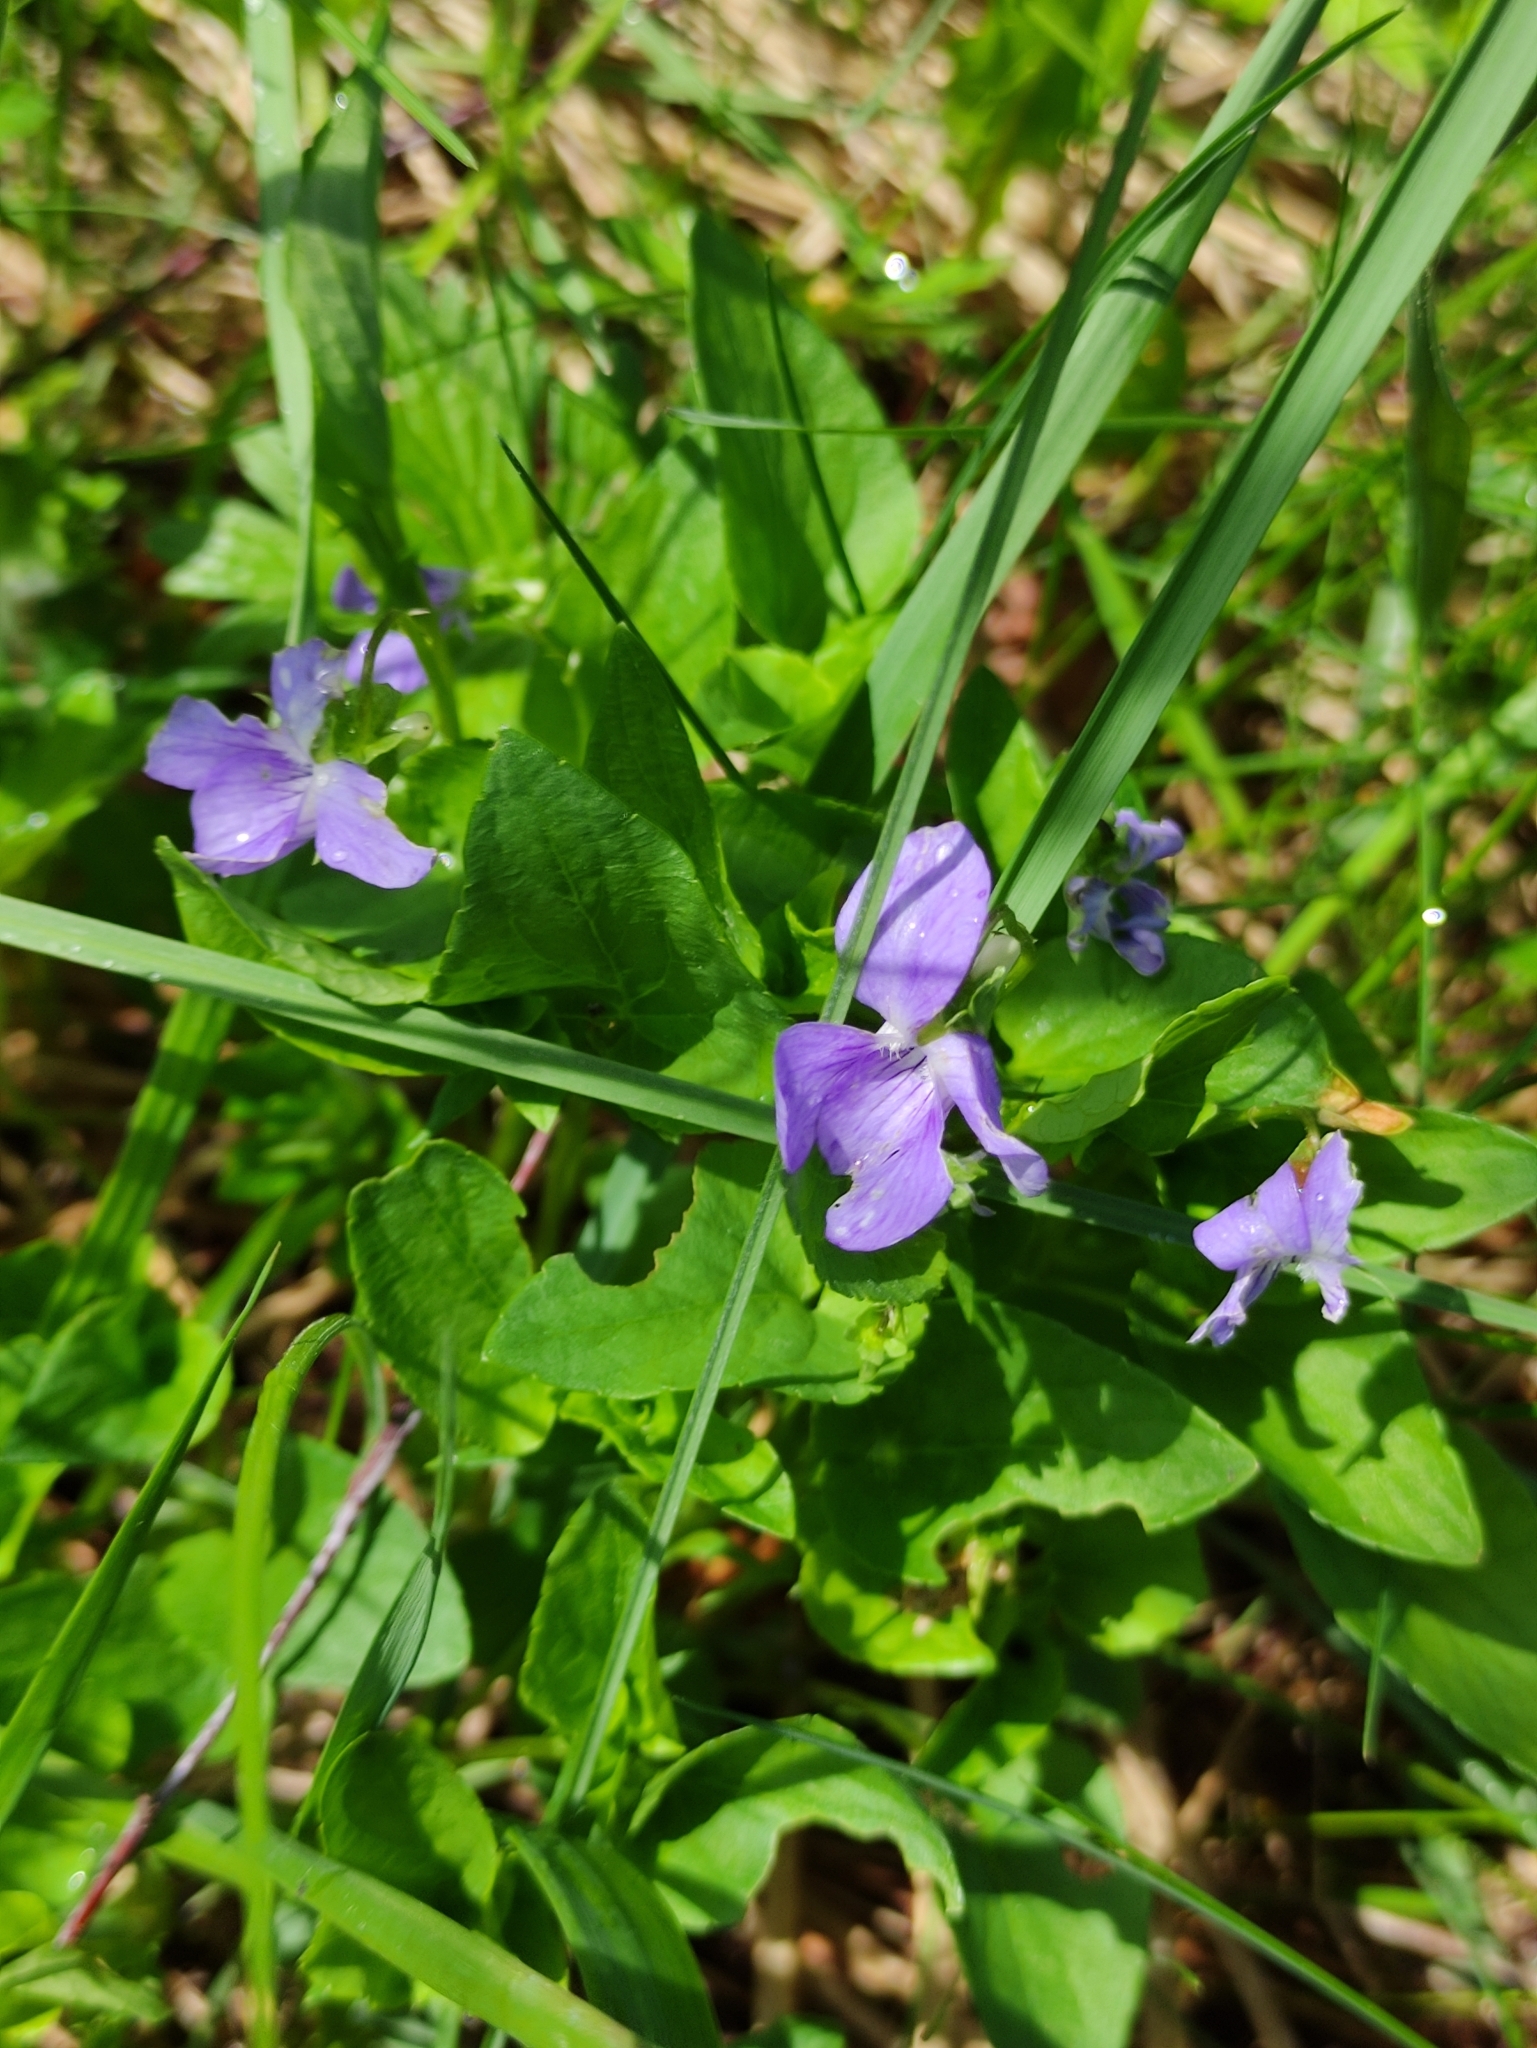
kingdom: Plantae
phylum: Tracheophyta
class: Magnoliopsida
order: Malpighiales
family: Violaceae
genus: Viola
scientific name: Viola canina
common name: Heath dog-violet
